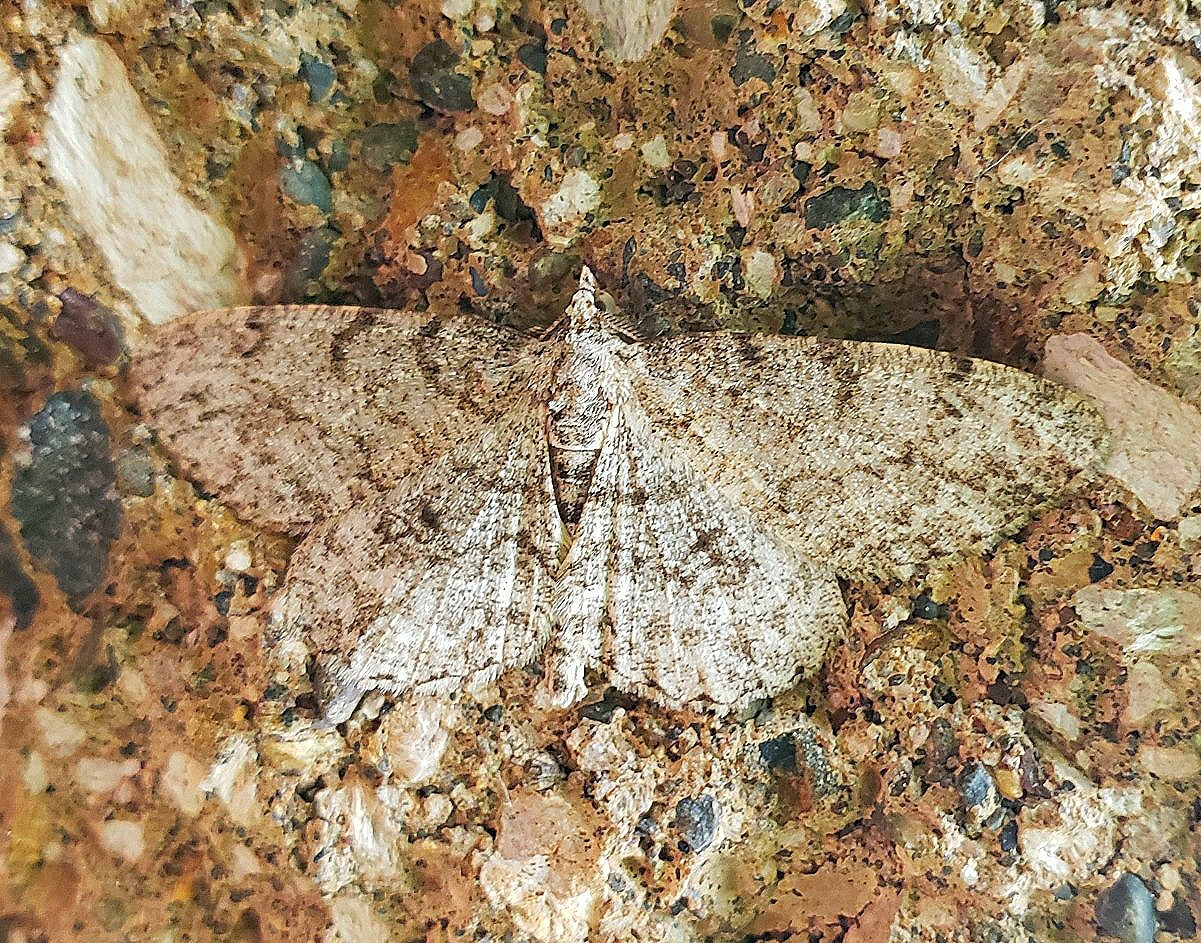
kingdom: Animalia
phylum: Arthropoda
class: Insecta
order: Lepidoptera
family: Geometridae
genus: Protoboarmia
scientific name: Protoboarmia porcelaria
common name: Porcelain gray
